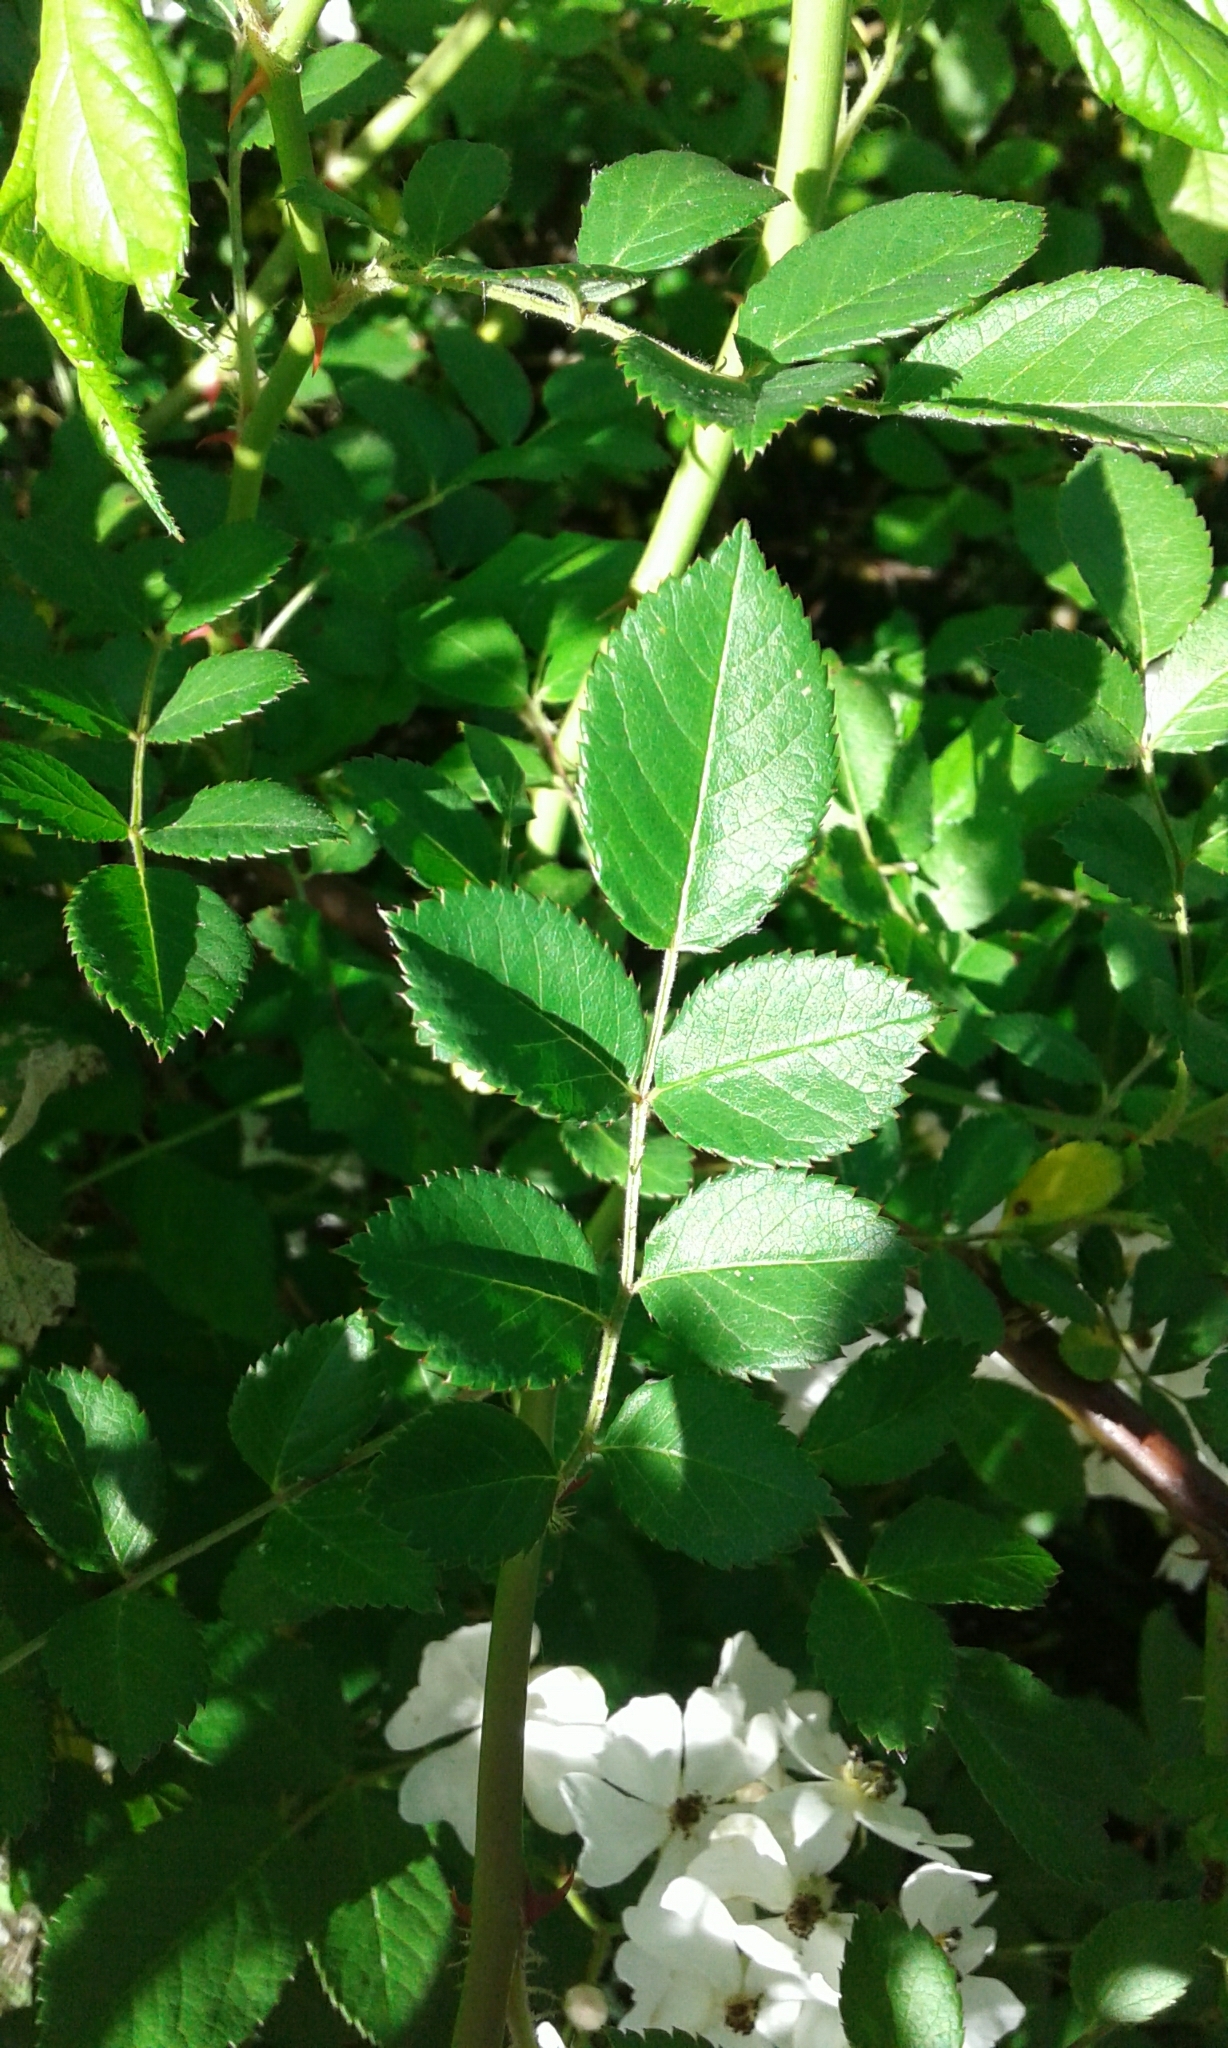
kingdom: Plantae
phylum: Tracheophyta
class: Magnoliopsida
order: Rosales
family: Rosaceae
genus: Rosa
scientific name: Rosa multiflora
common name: Multiflora rose
